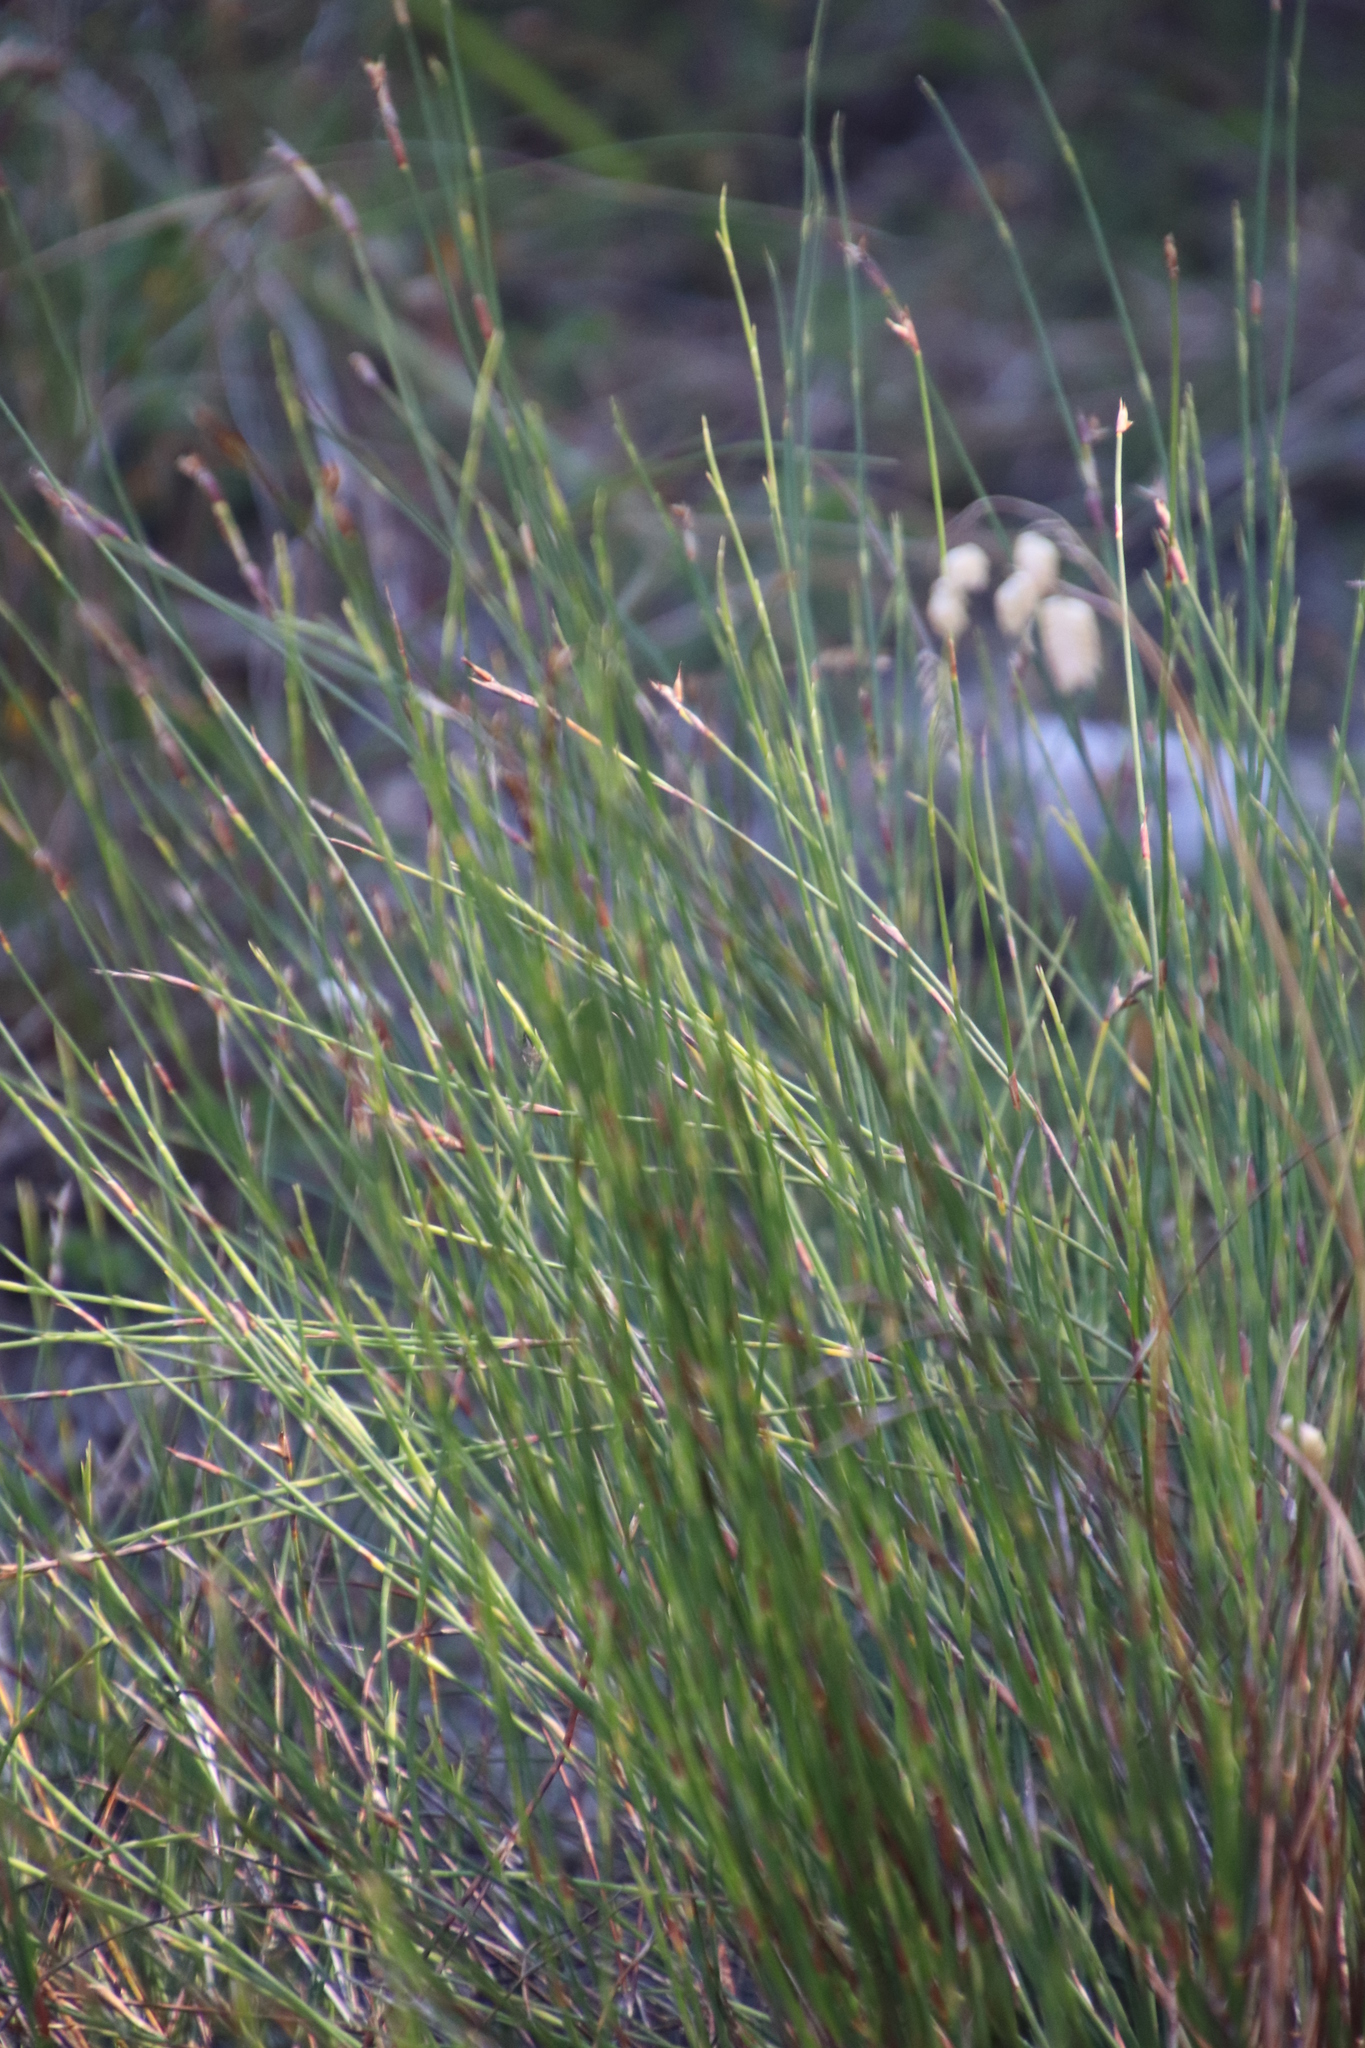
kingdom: Plantae
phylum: Tracheophyta
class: Liliopsida
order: Poales
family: Restionaceae
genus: Restio
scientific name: Restio capensis
